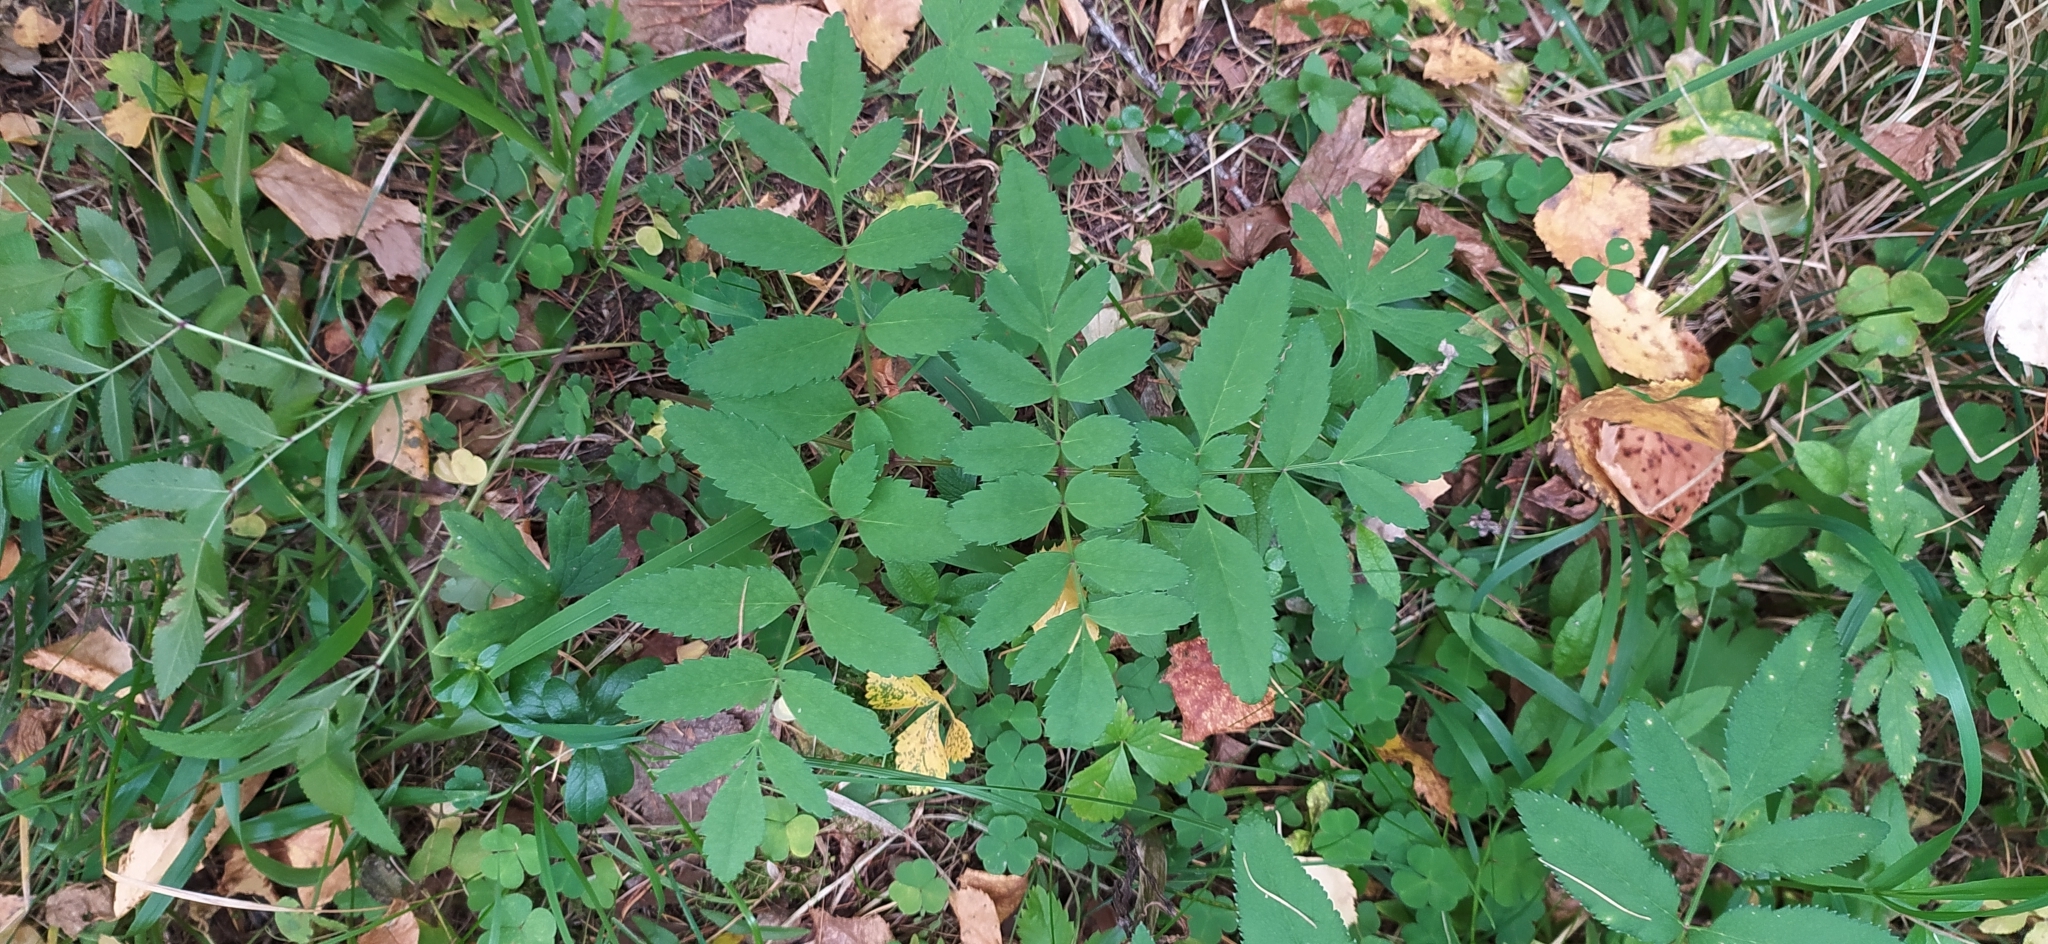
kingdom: Plantae
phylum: Tracheophyta
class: Magnoliopsida
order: Apiales
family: Apiaceae
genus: Angelica
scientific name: Angelica sylvestris
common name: Wild angelica
